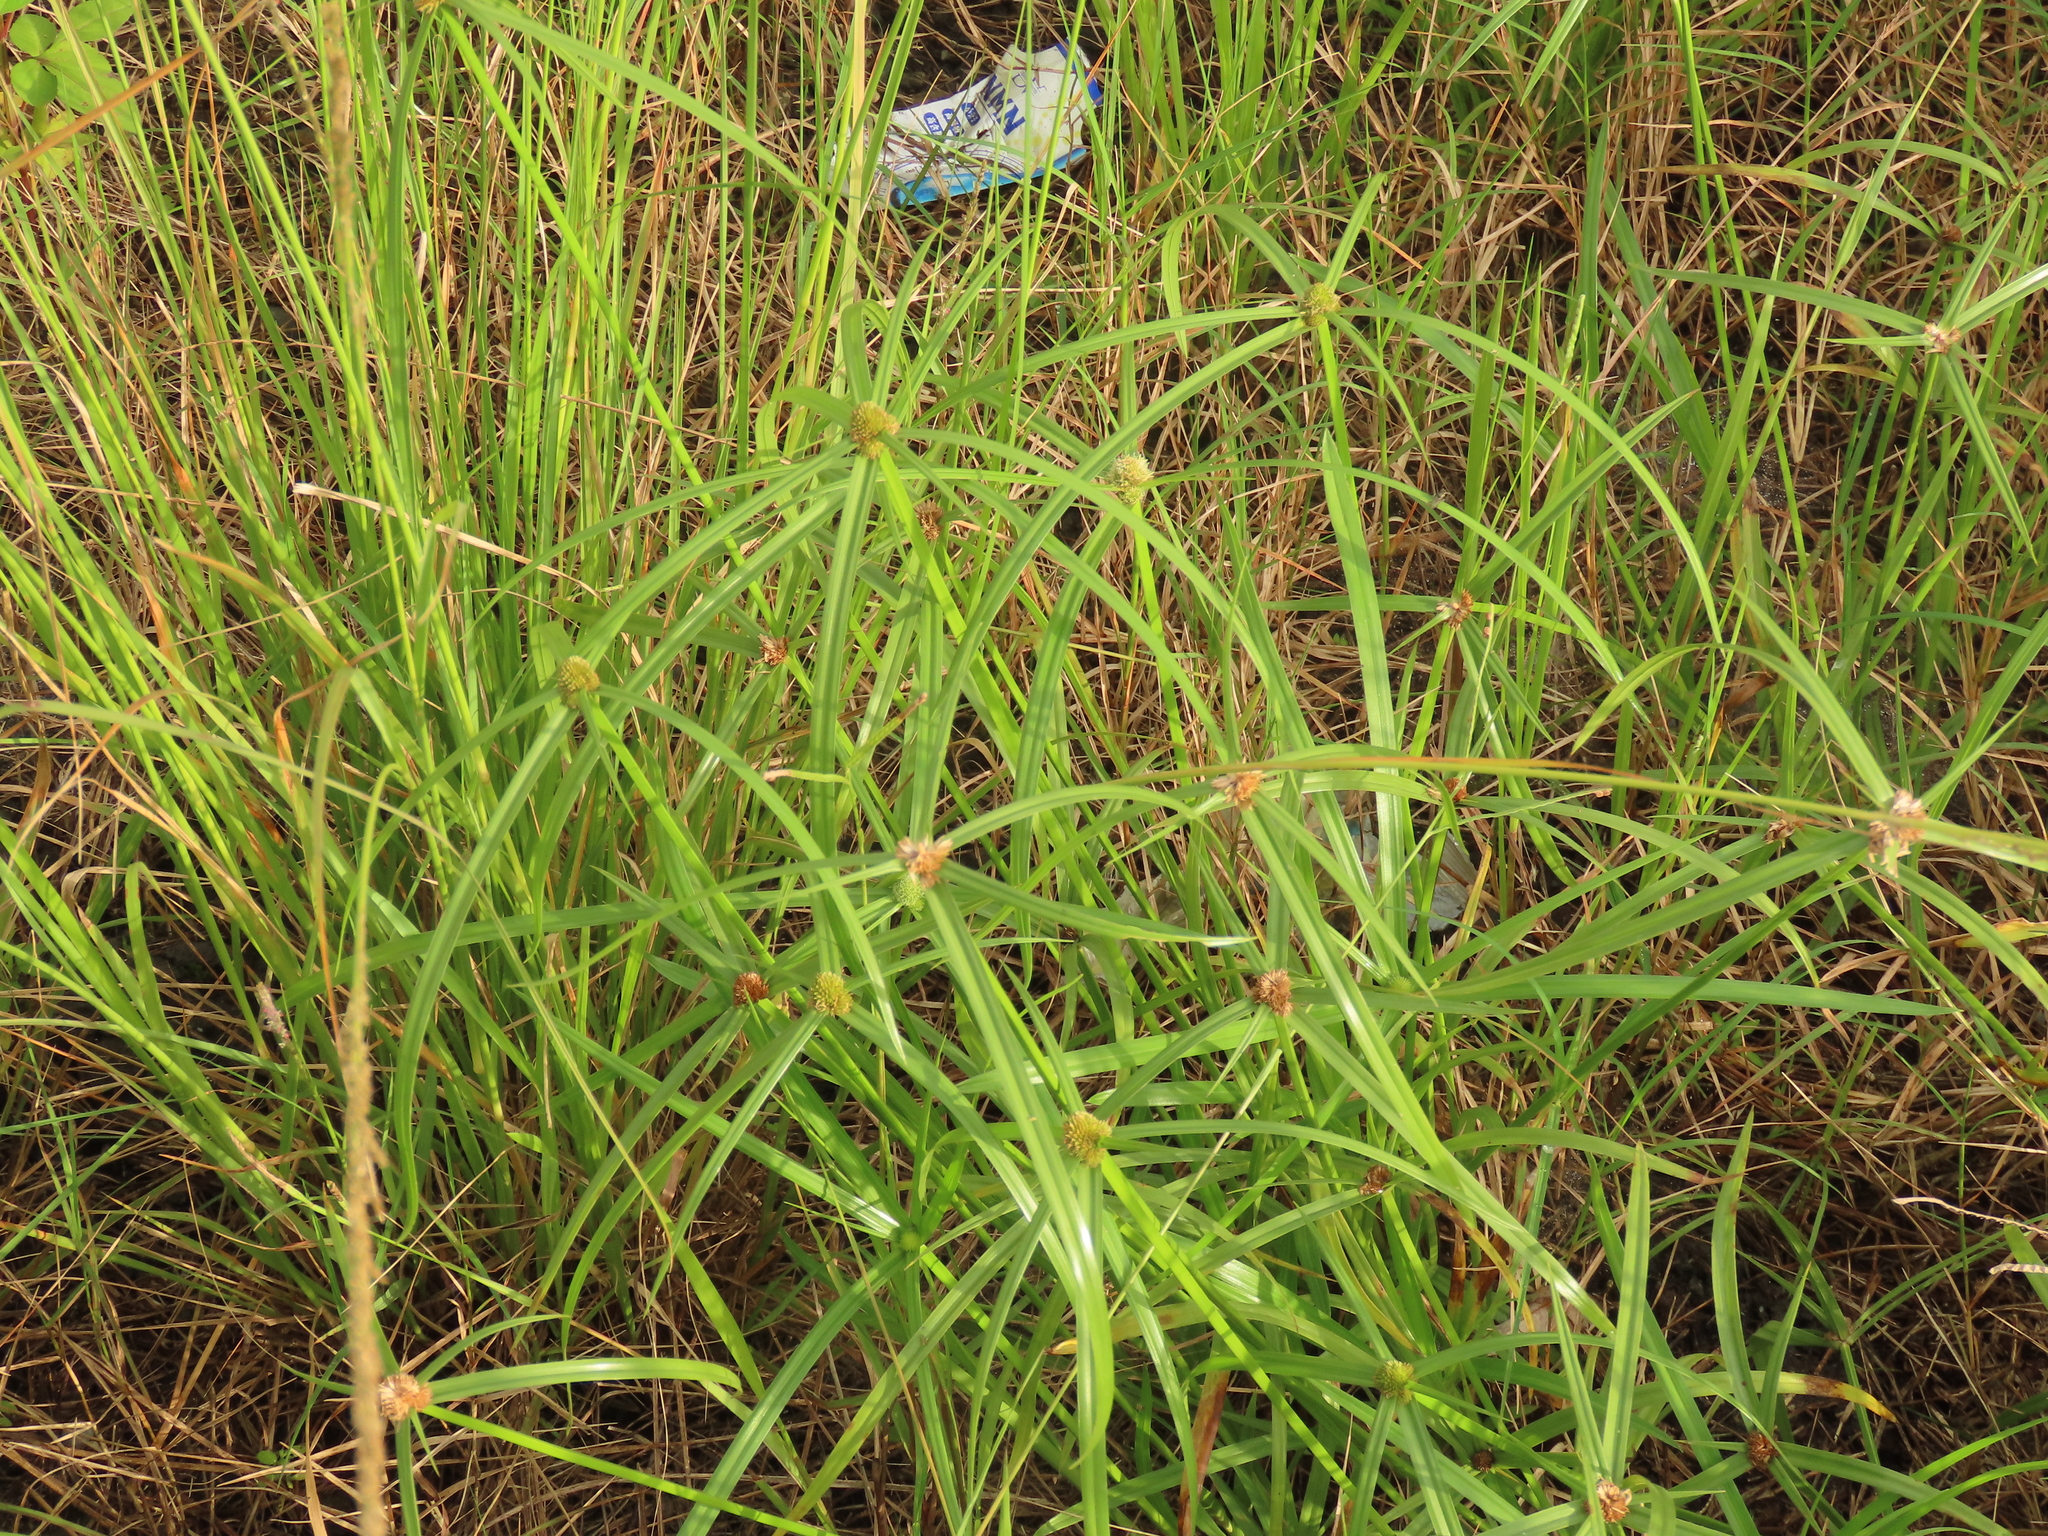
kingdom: Plantae
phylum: Tracheophyta
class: Liliopsida
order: Poales
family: Cyperaceae
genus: Cyperus
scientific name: Cyperus aromaticus
